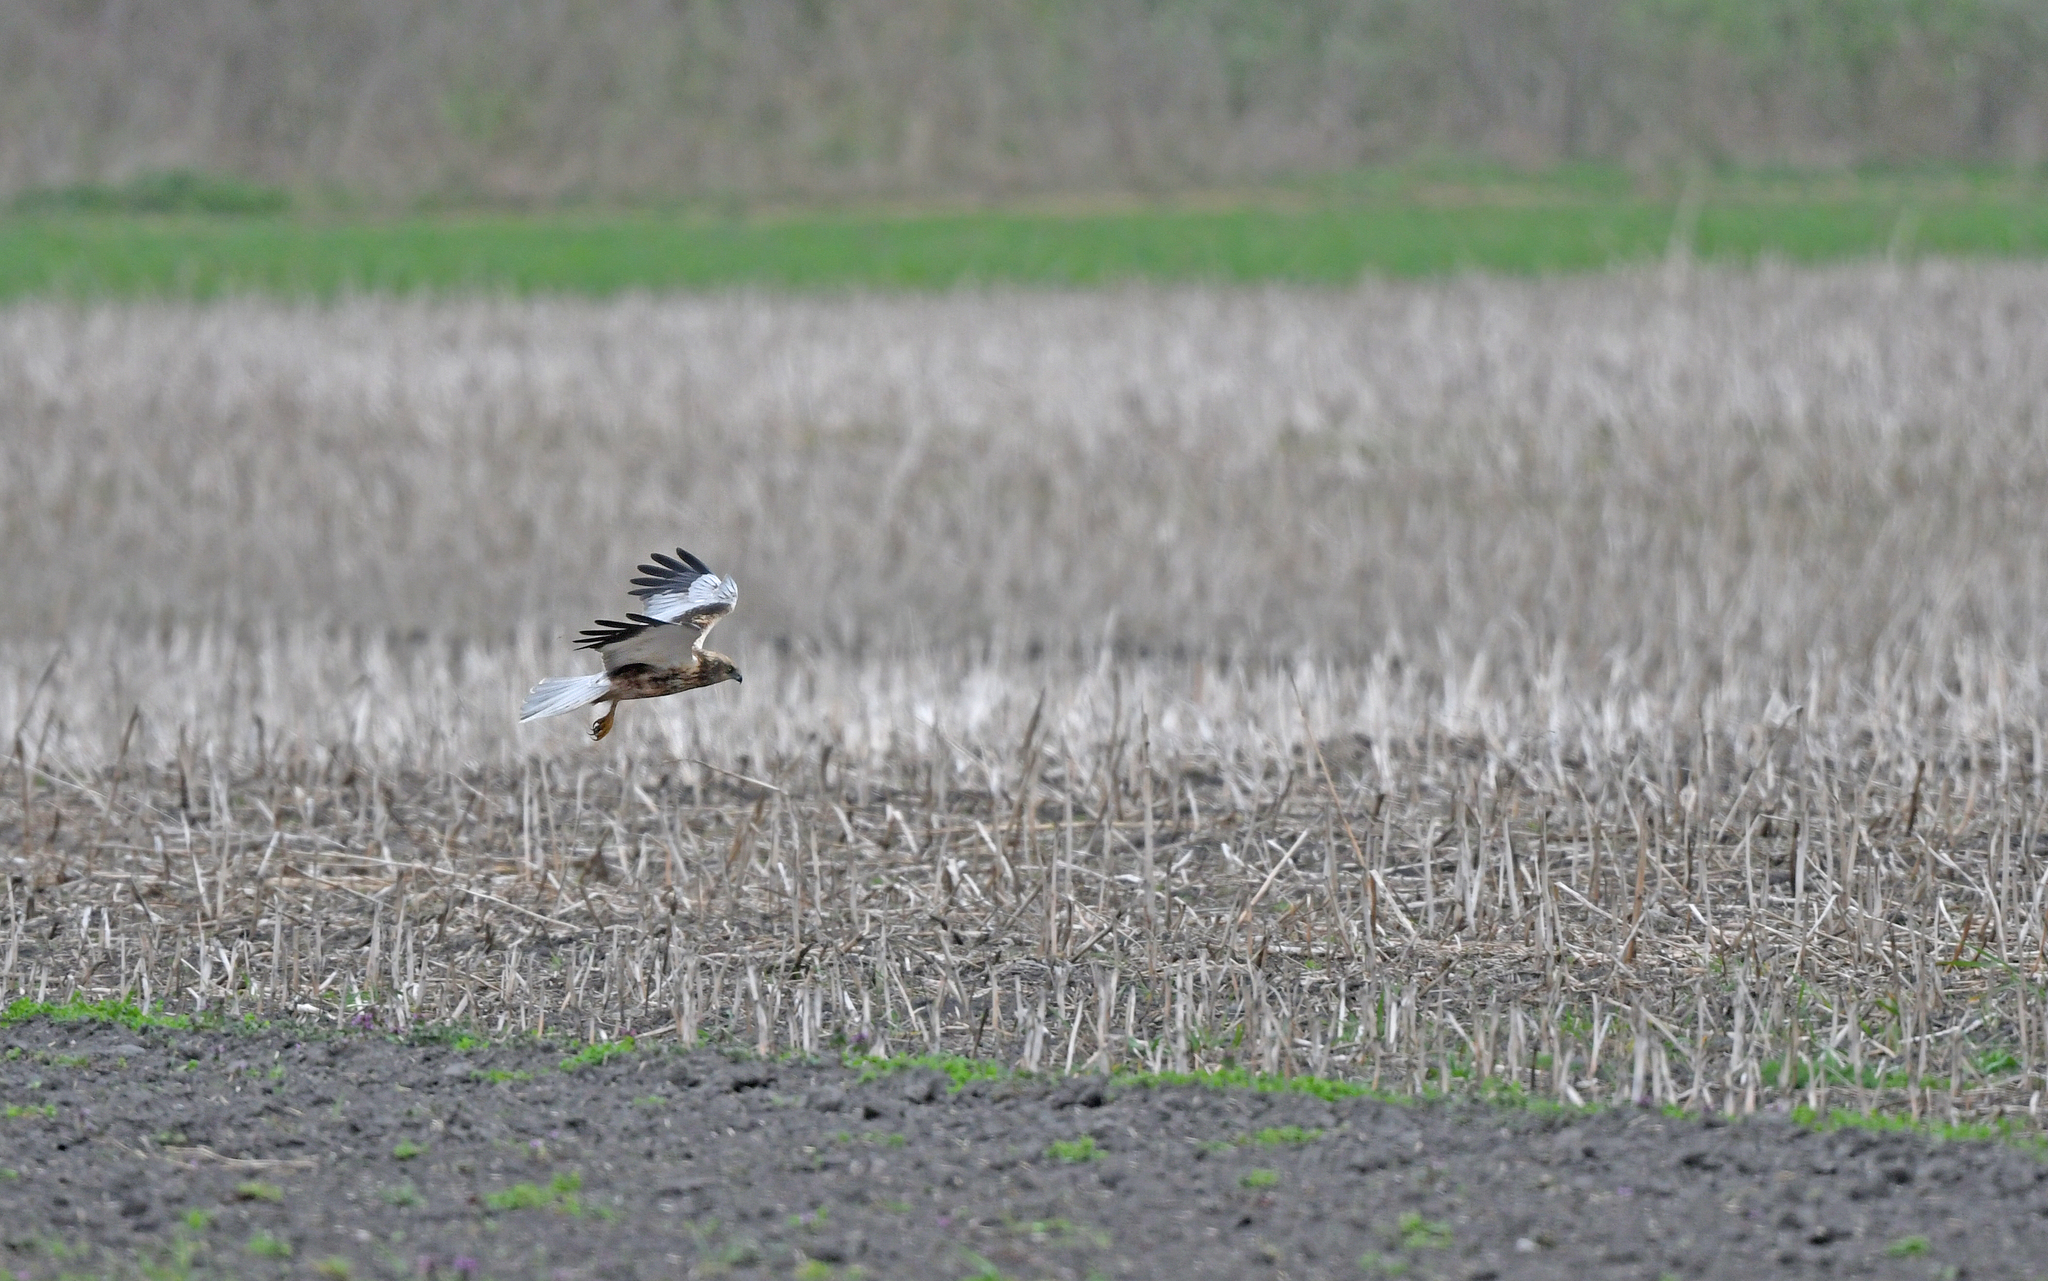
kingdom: Animalia
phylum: Chordata
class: Aves
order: Accipitriformes
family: Accipitridae
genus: Circus
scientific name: Circus aeruginosus
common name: Western marsh harrier
